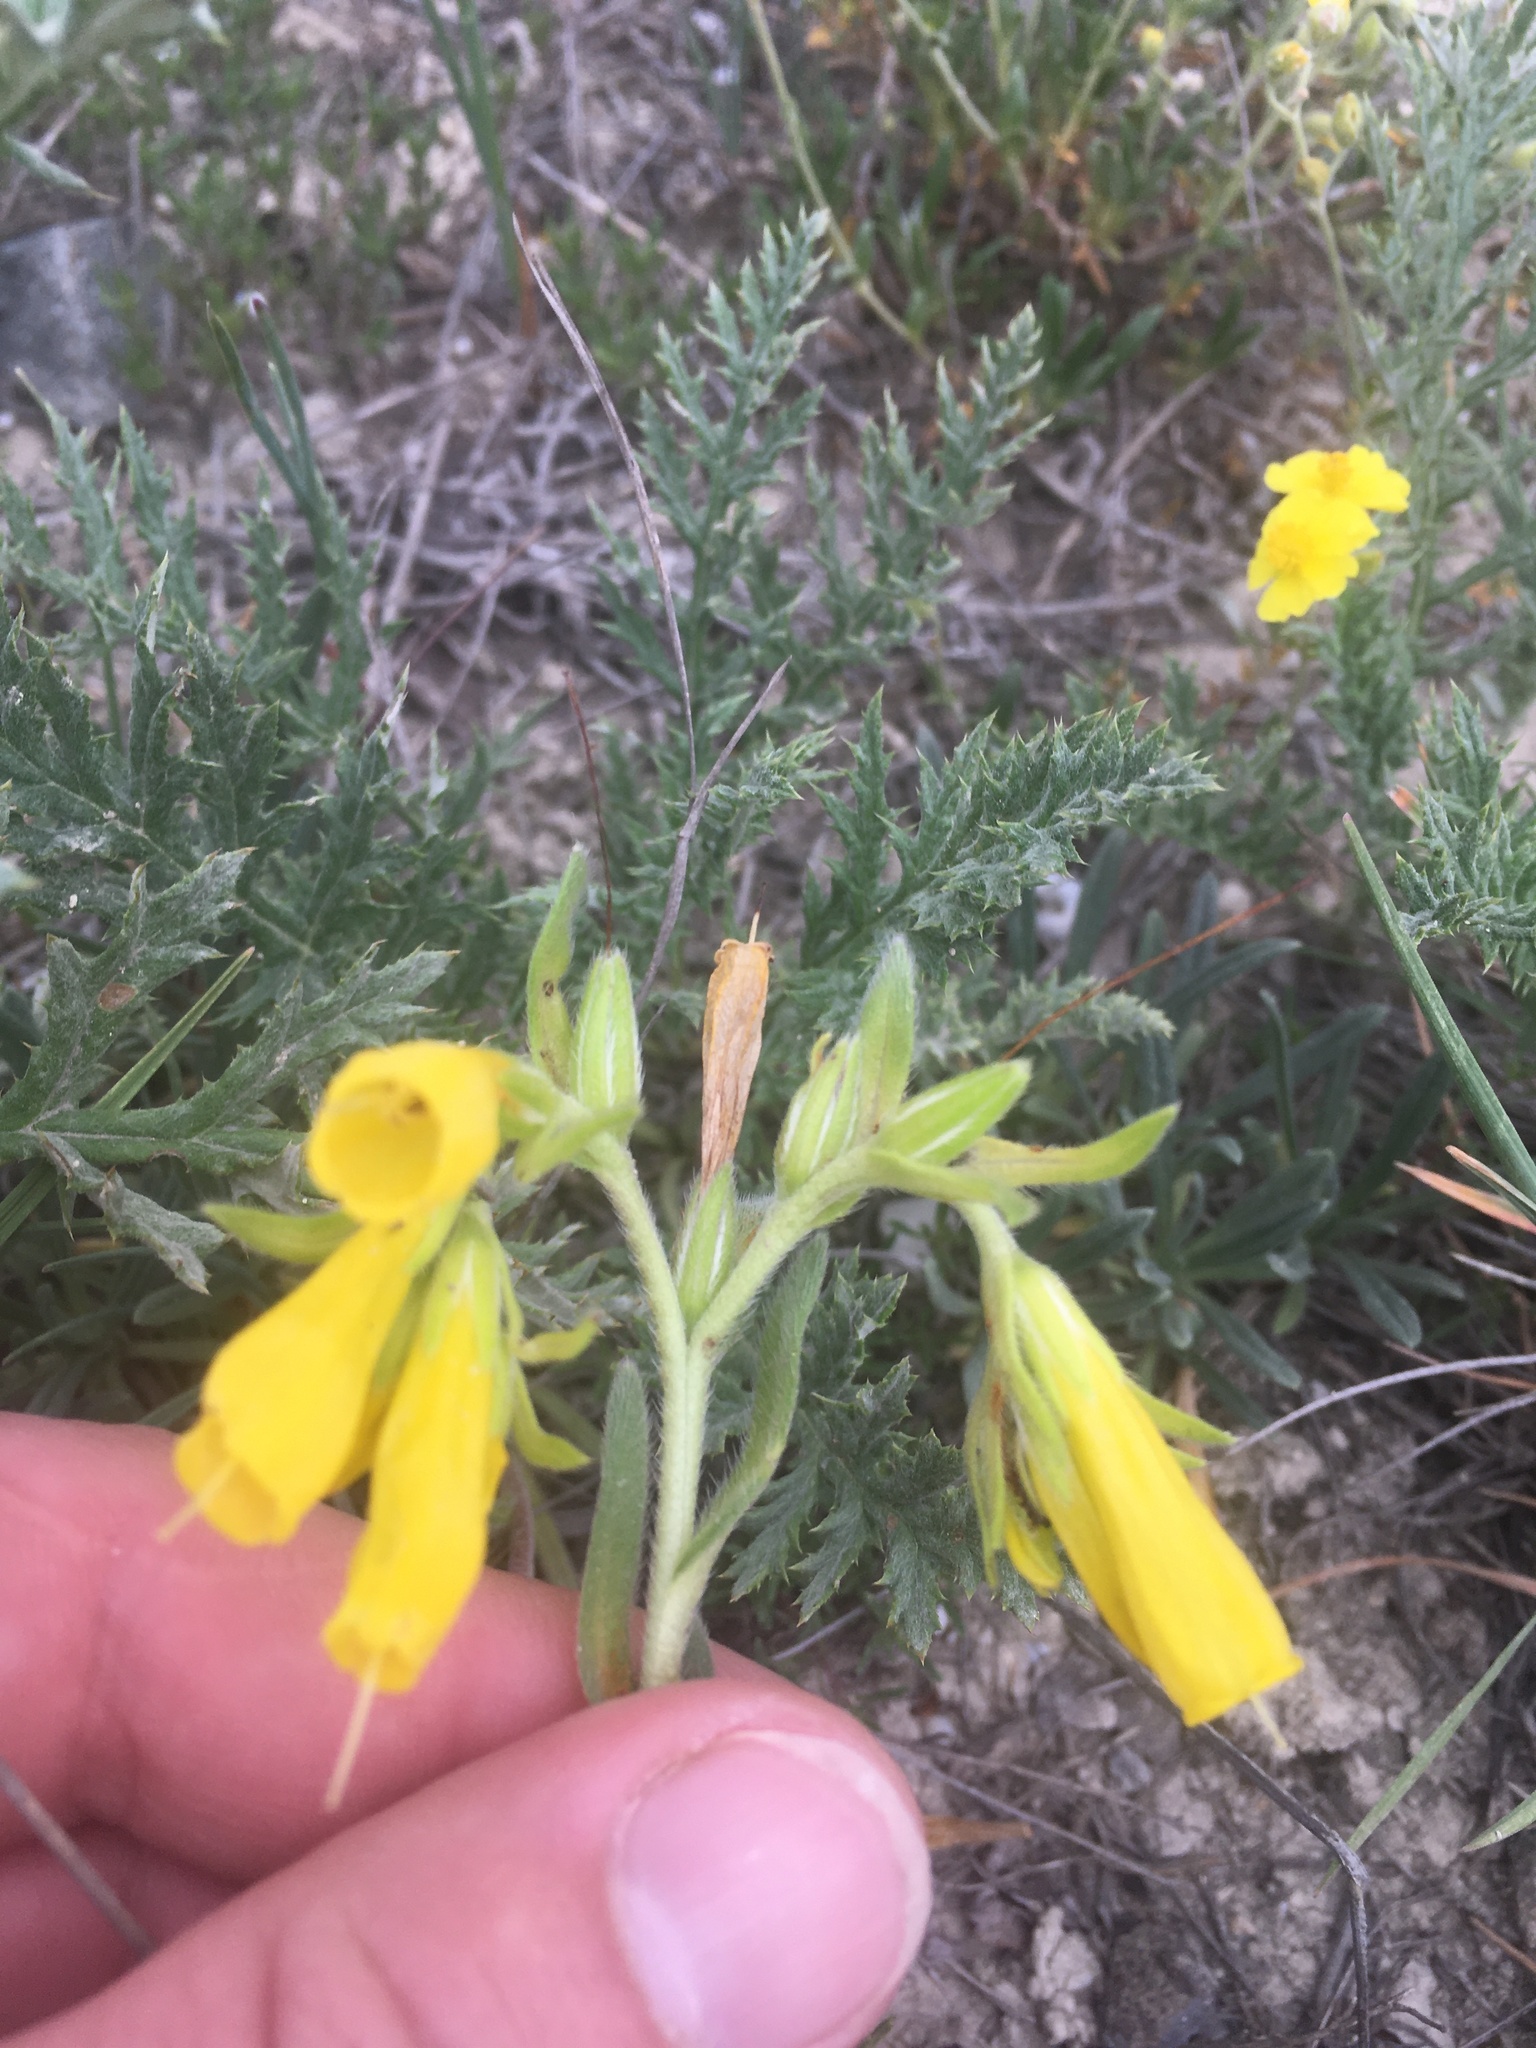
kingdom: Plantae
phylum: Tracheophyta
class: Magnoliopsida
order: Boraginales
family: Boraginaceae
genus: Onosma
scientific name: Onosma taurica
